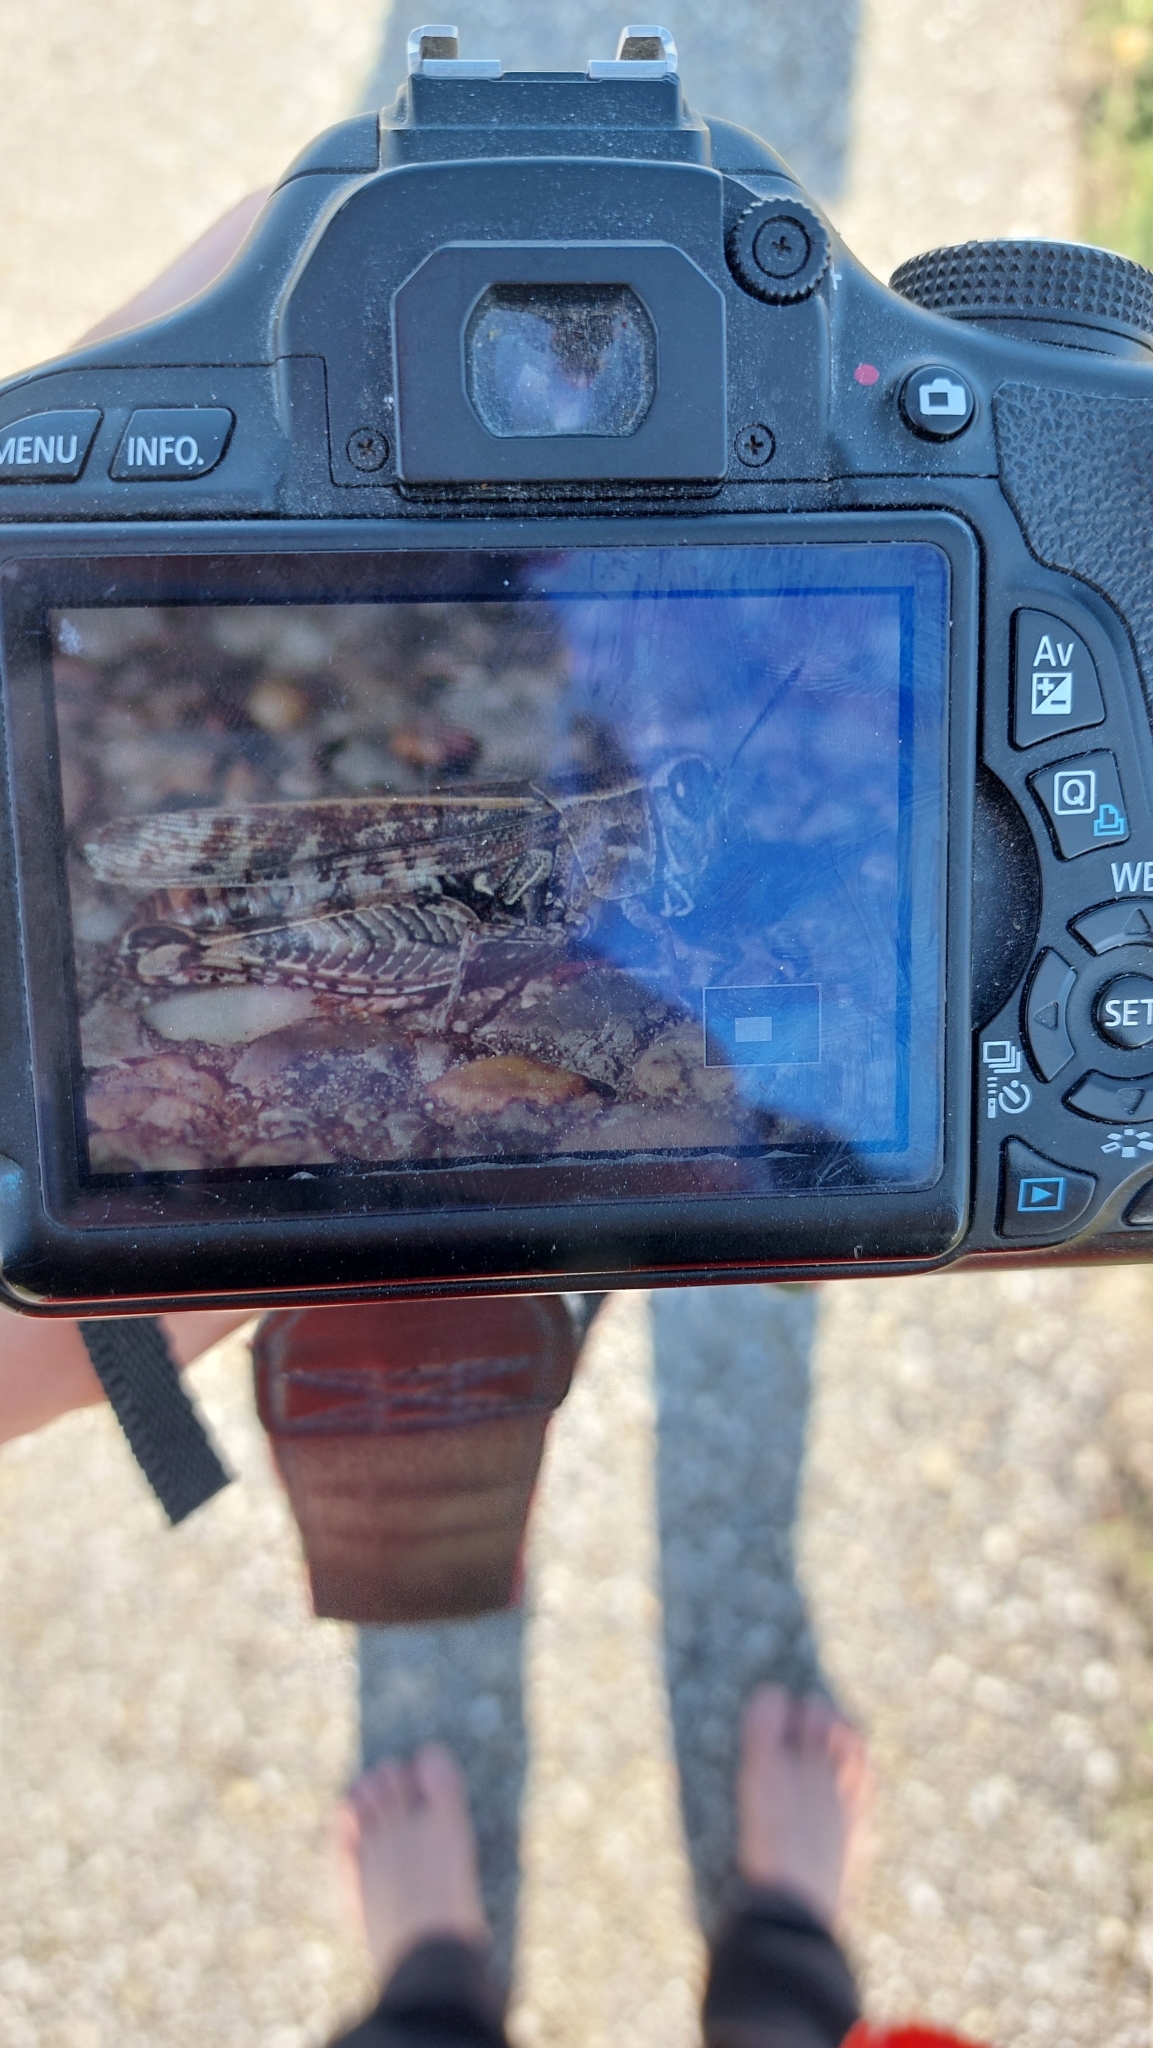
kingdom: Animalia
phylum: Arthropoda
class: Insecta
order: Orthoptera
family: Acrididae
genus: Calliptamus
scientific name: Calliptamus italicus
